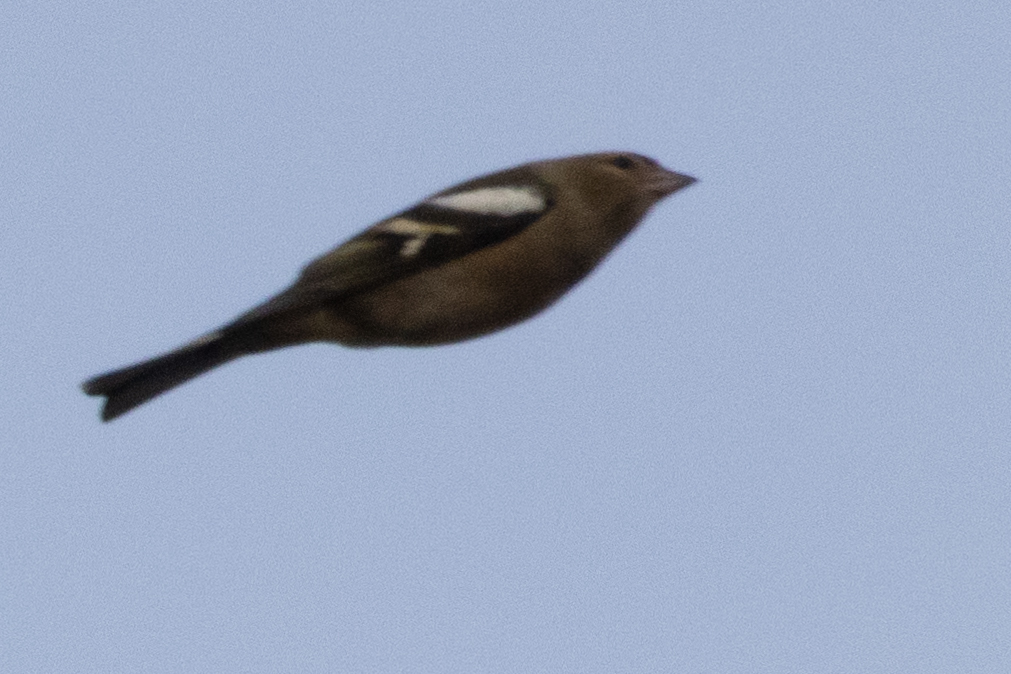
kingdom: Animalia
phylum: Chordata
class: Aves
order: Passeriformes
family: Fringillidae
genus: Fringilla
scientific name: Fringilla coelebs
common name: Common chaffinch
